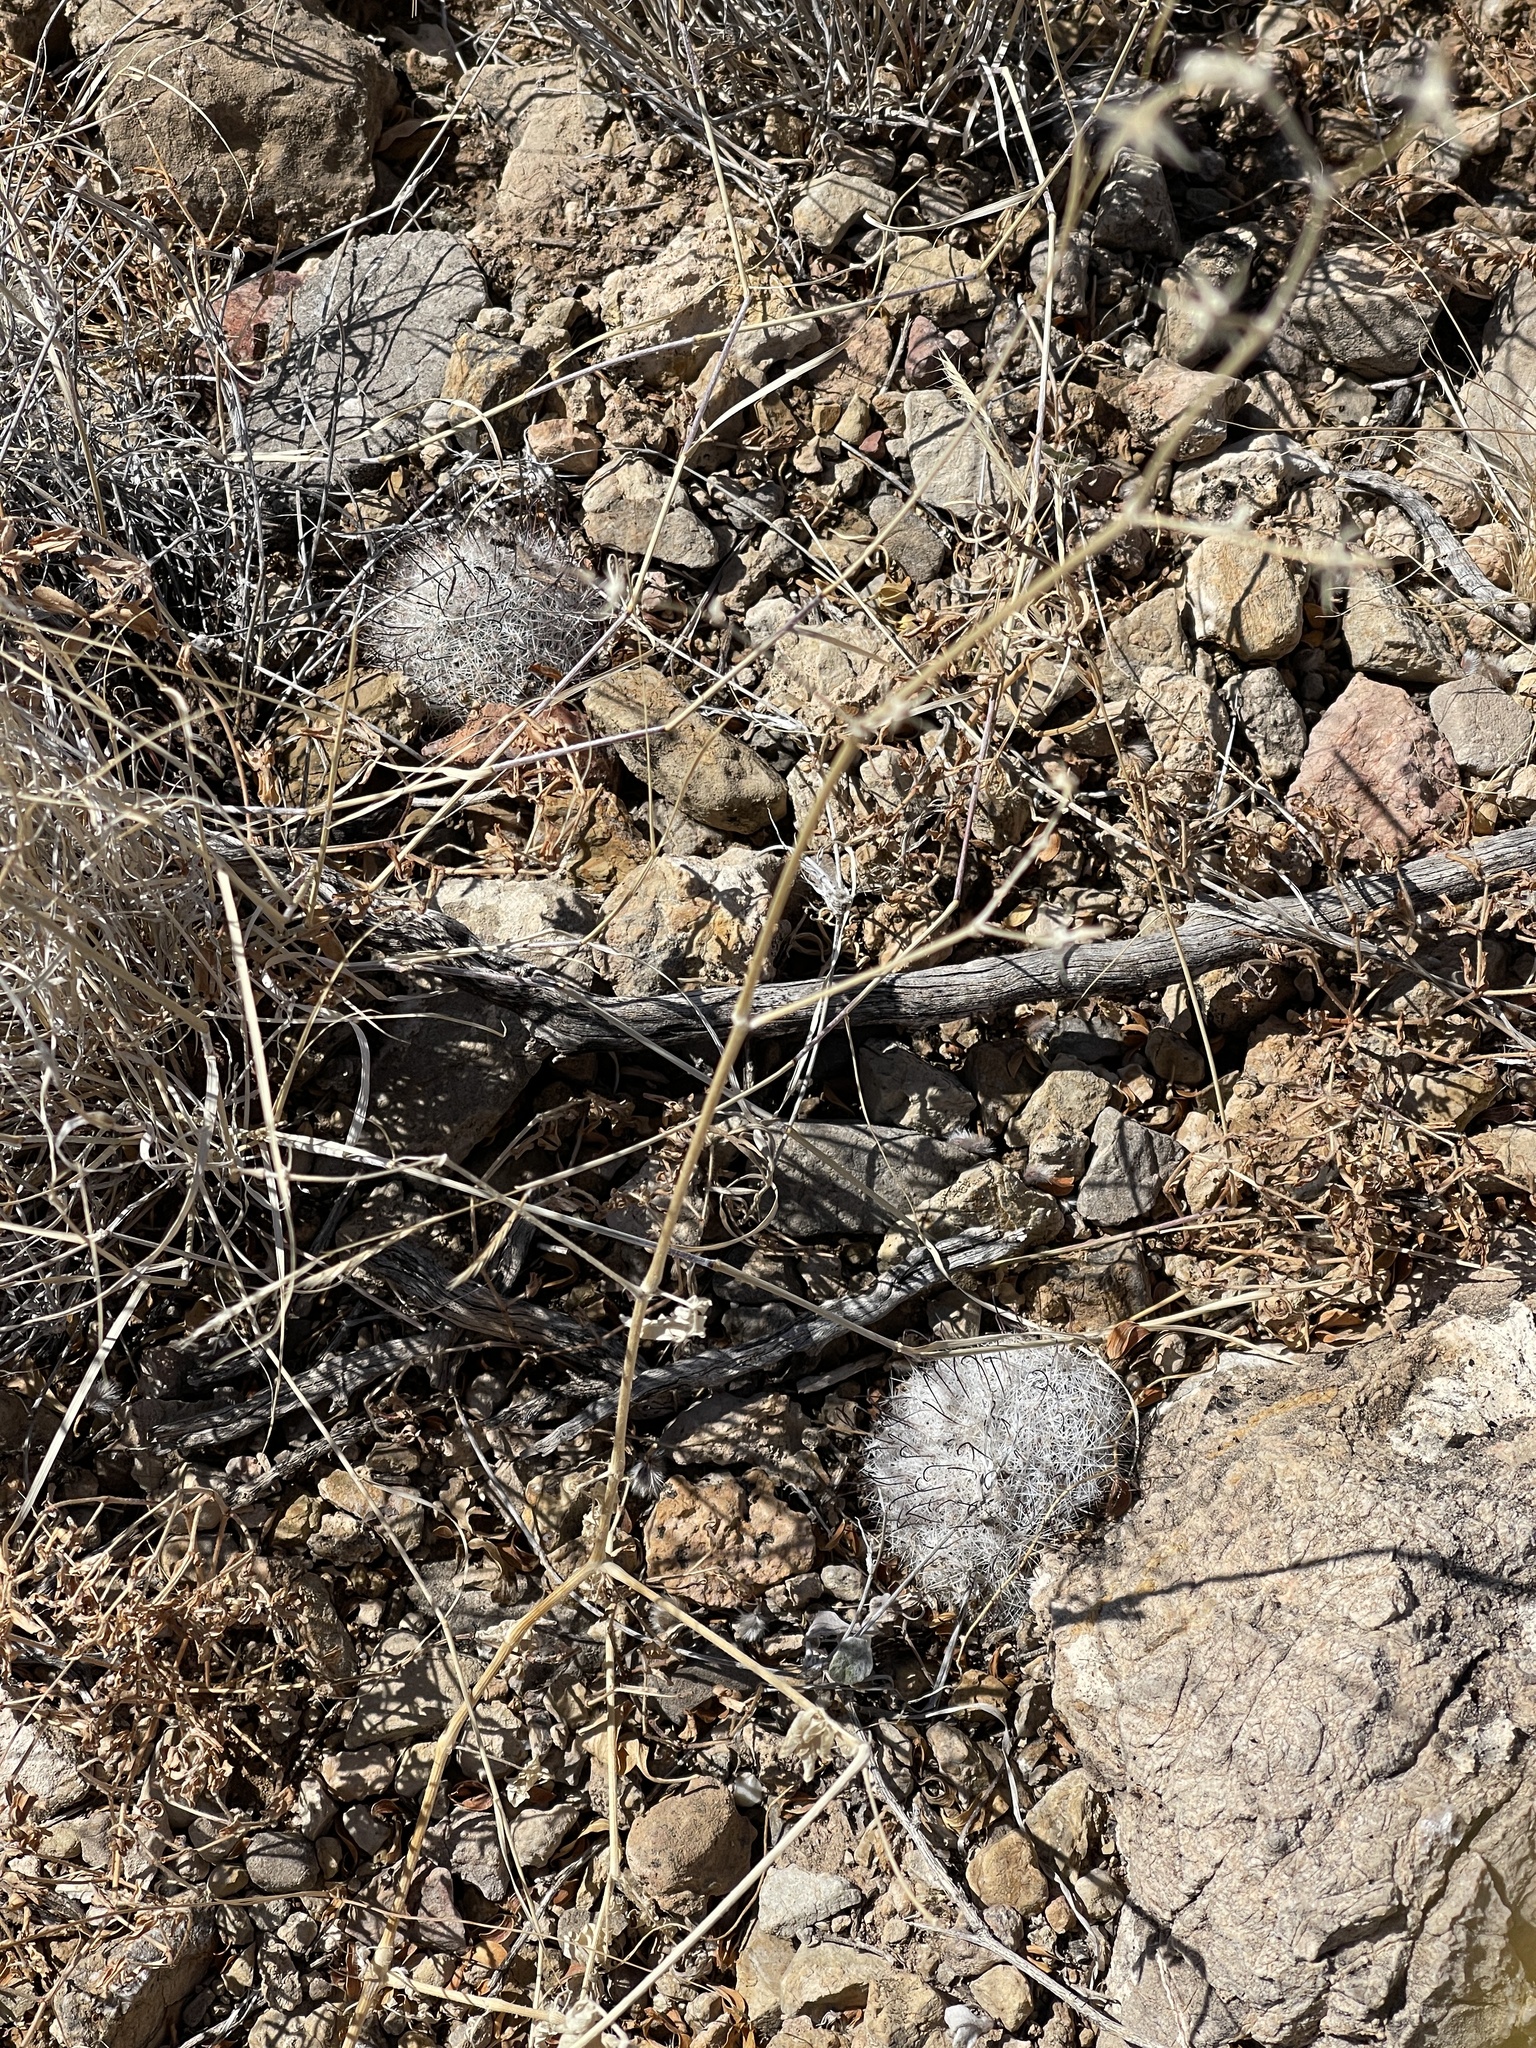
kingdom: Plantae
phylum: Tracheophyta
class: Magnoliopsida
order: Caryophyllales
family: Cactaceae
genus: Cochemiea
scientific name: Cochemiea grahamii
